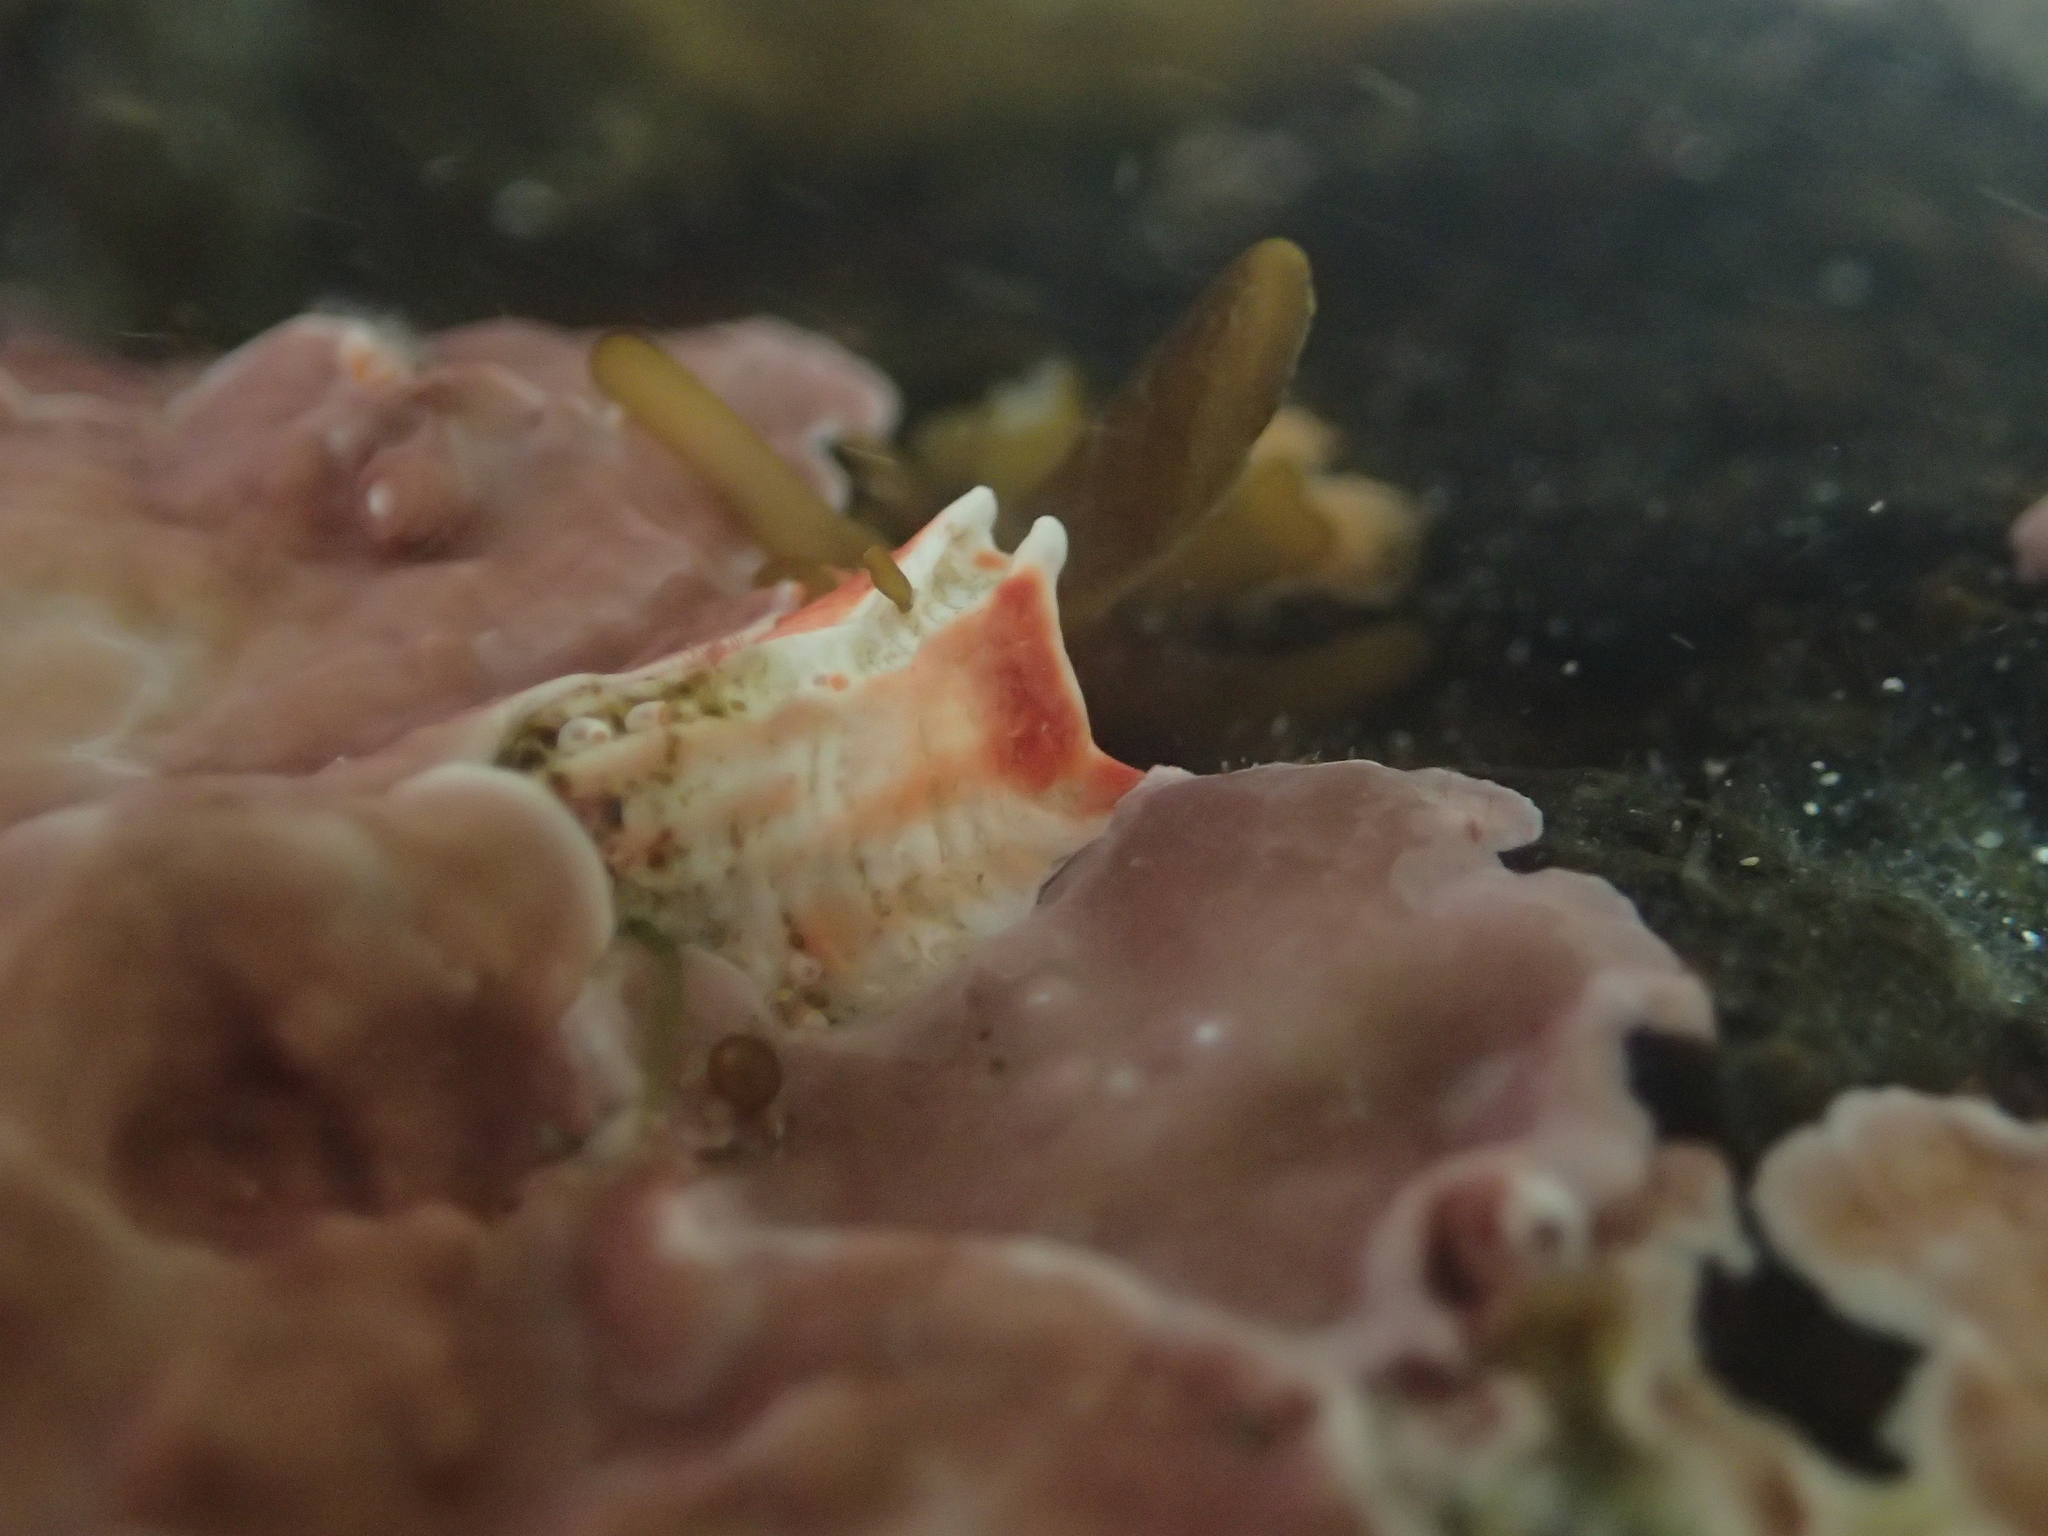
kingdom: Animalia
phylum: Annelida
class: Polychaeta
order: Sabellida
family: Serpulidae
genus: Galeolaria
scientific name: Galeolaria hystrix
